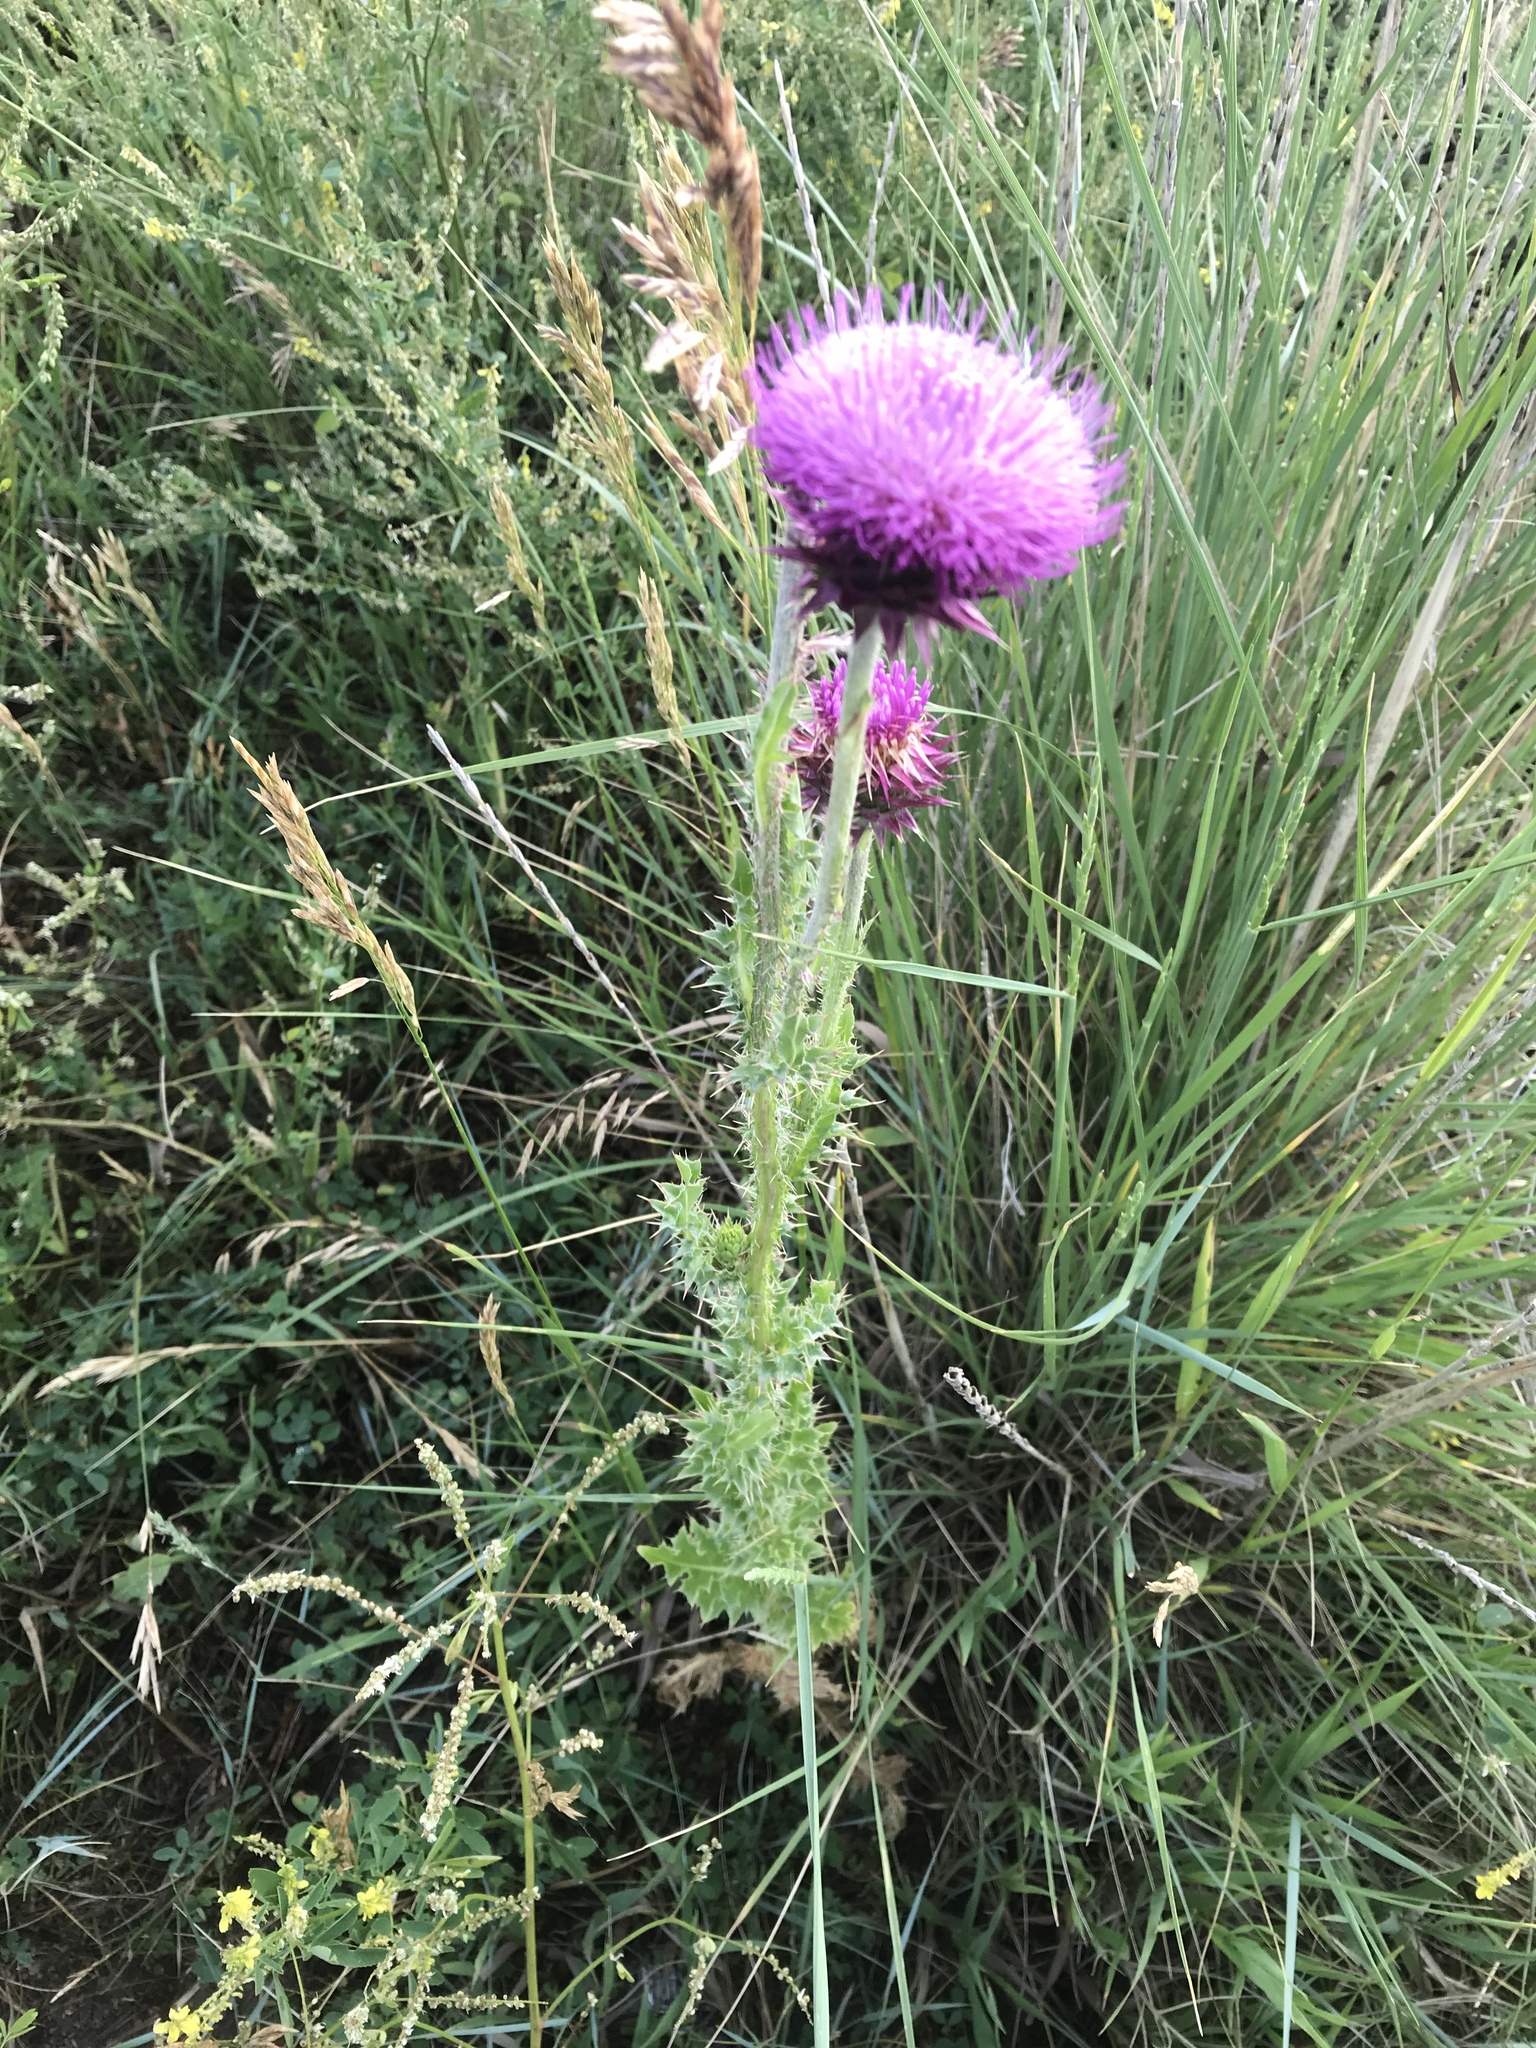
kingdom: Plantae
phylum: Tracheophyta
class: Magnoliopsida
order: Asterales
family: Asteraceae
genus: Carduus
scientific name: Carduus nutans
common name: Musk thistle
